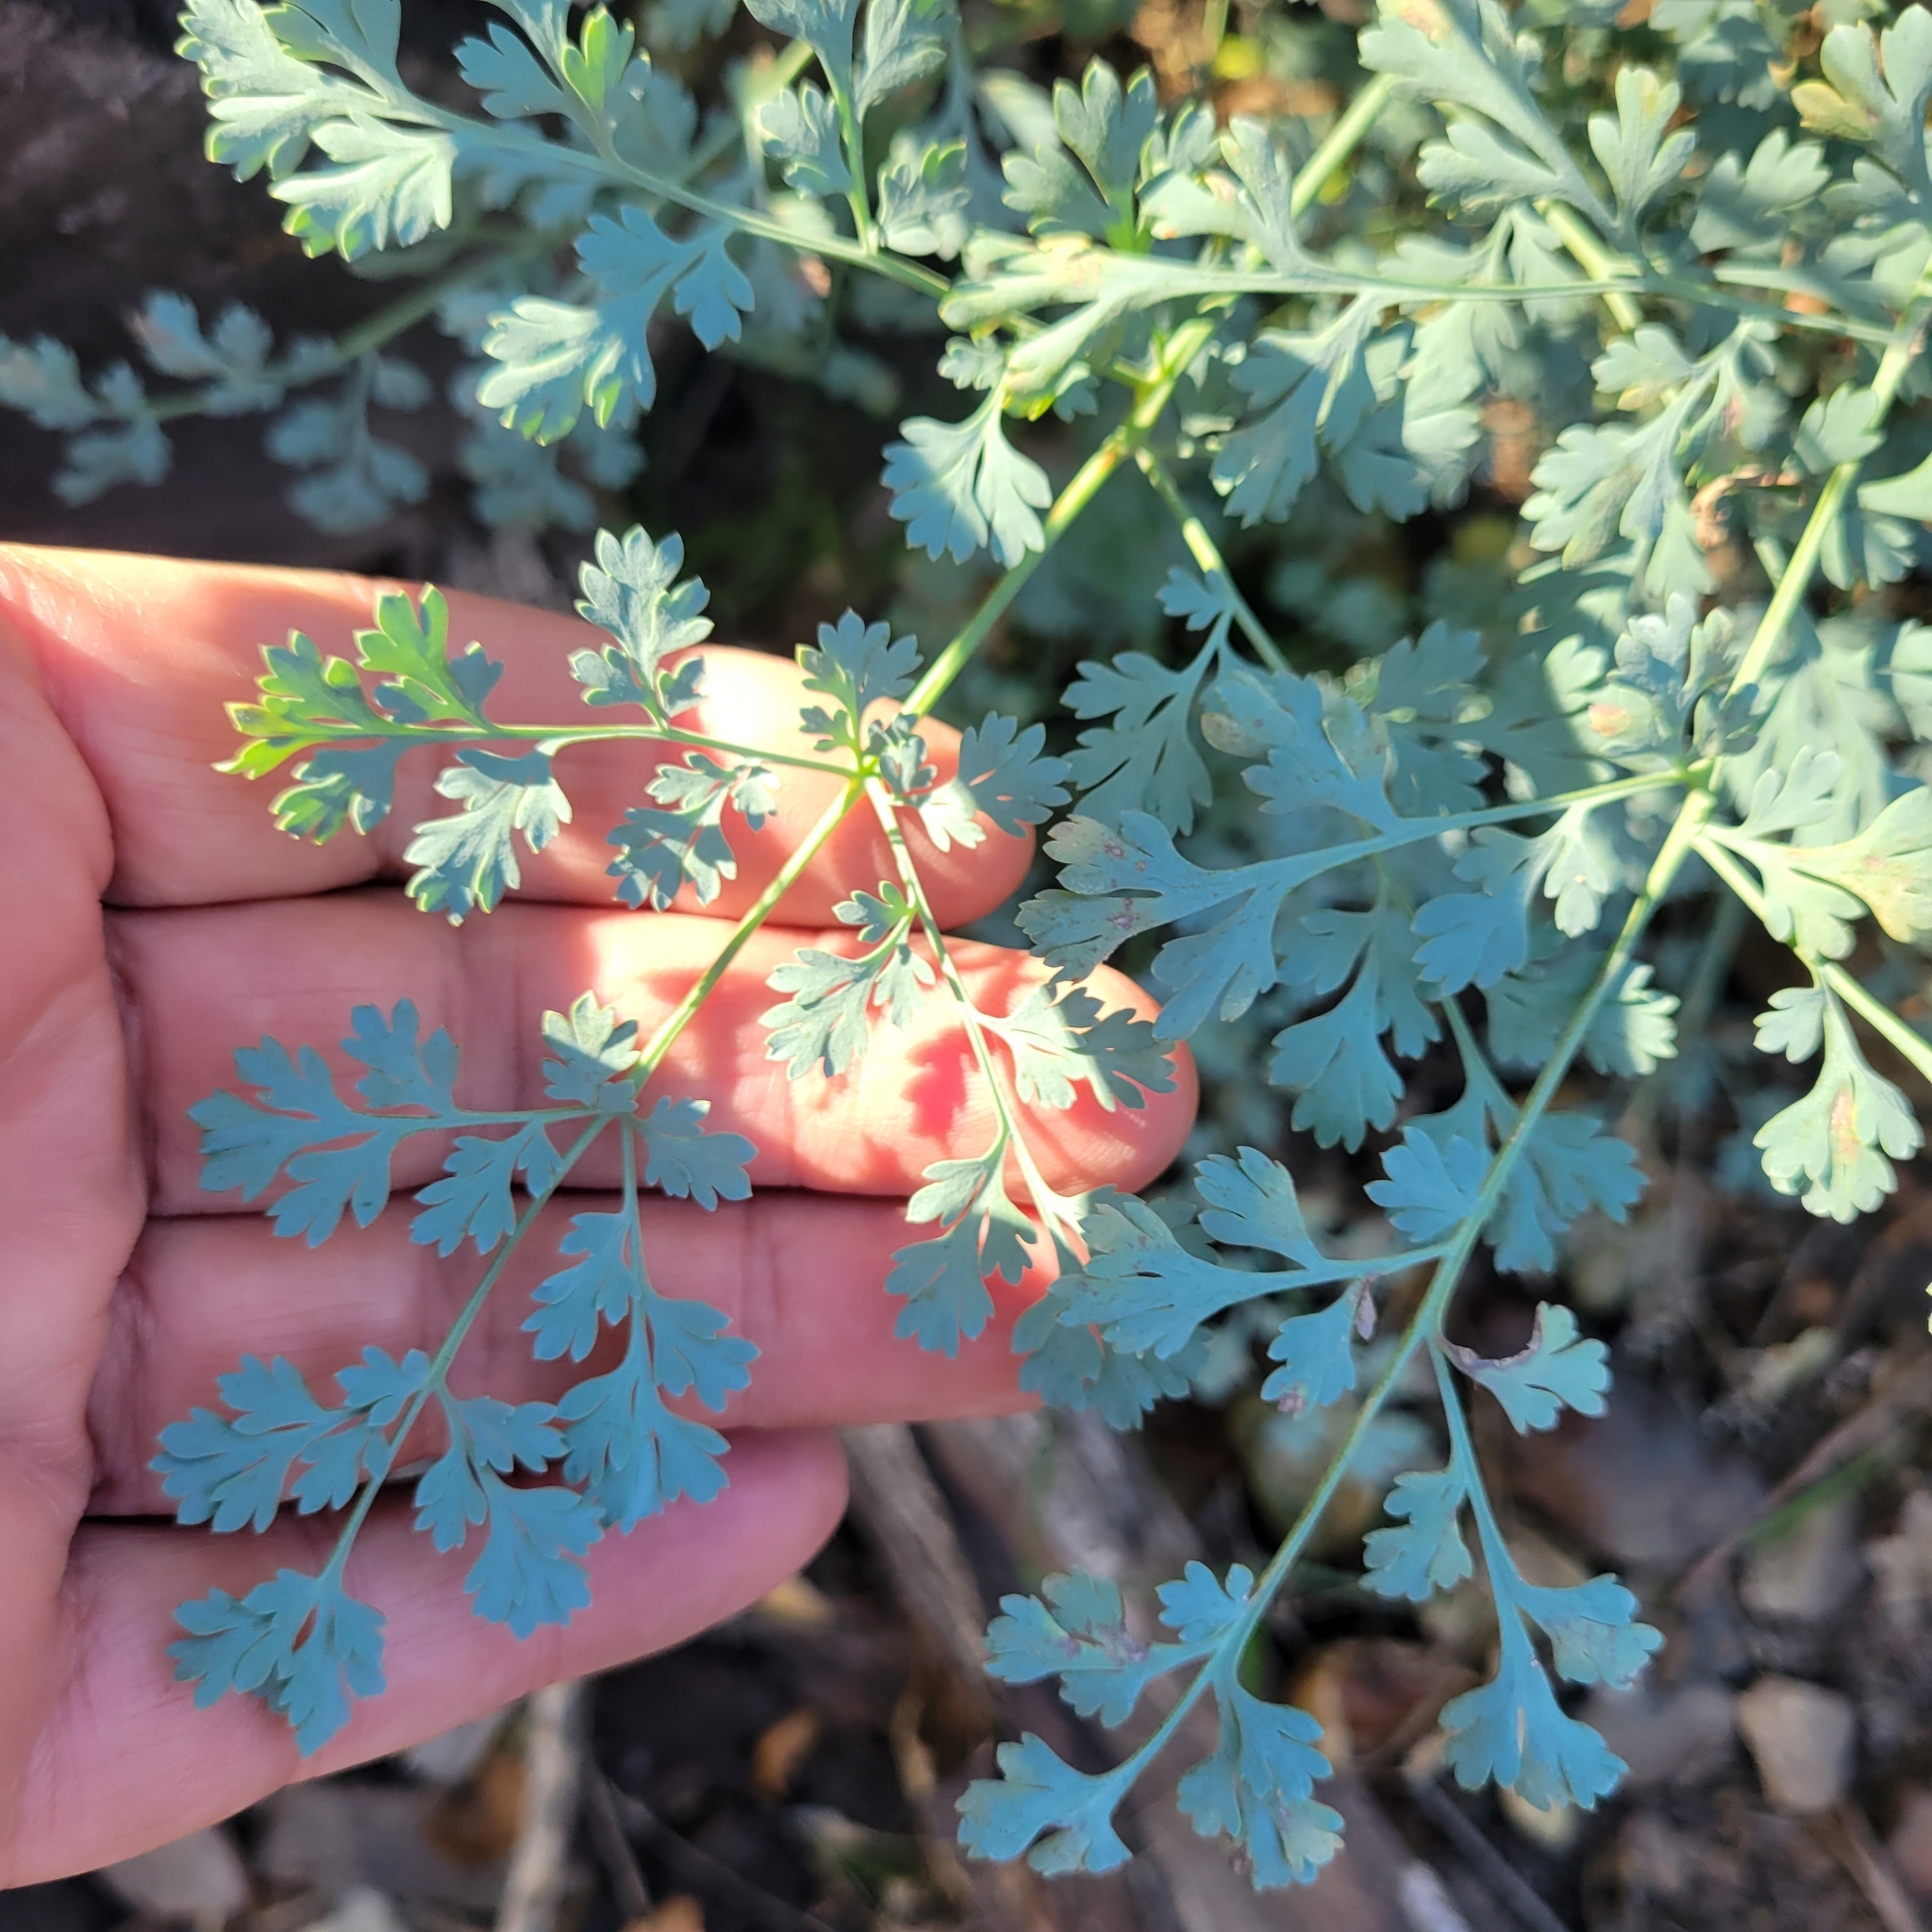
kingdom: Plantae
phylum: Tracheophyta
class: Magnoliopsida
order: Ranunculales
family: Papaveraceae
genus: Ehrendorferia
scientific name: Ehrendorferia chrysantha
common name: Golden eardrops
